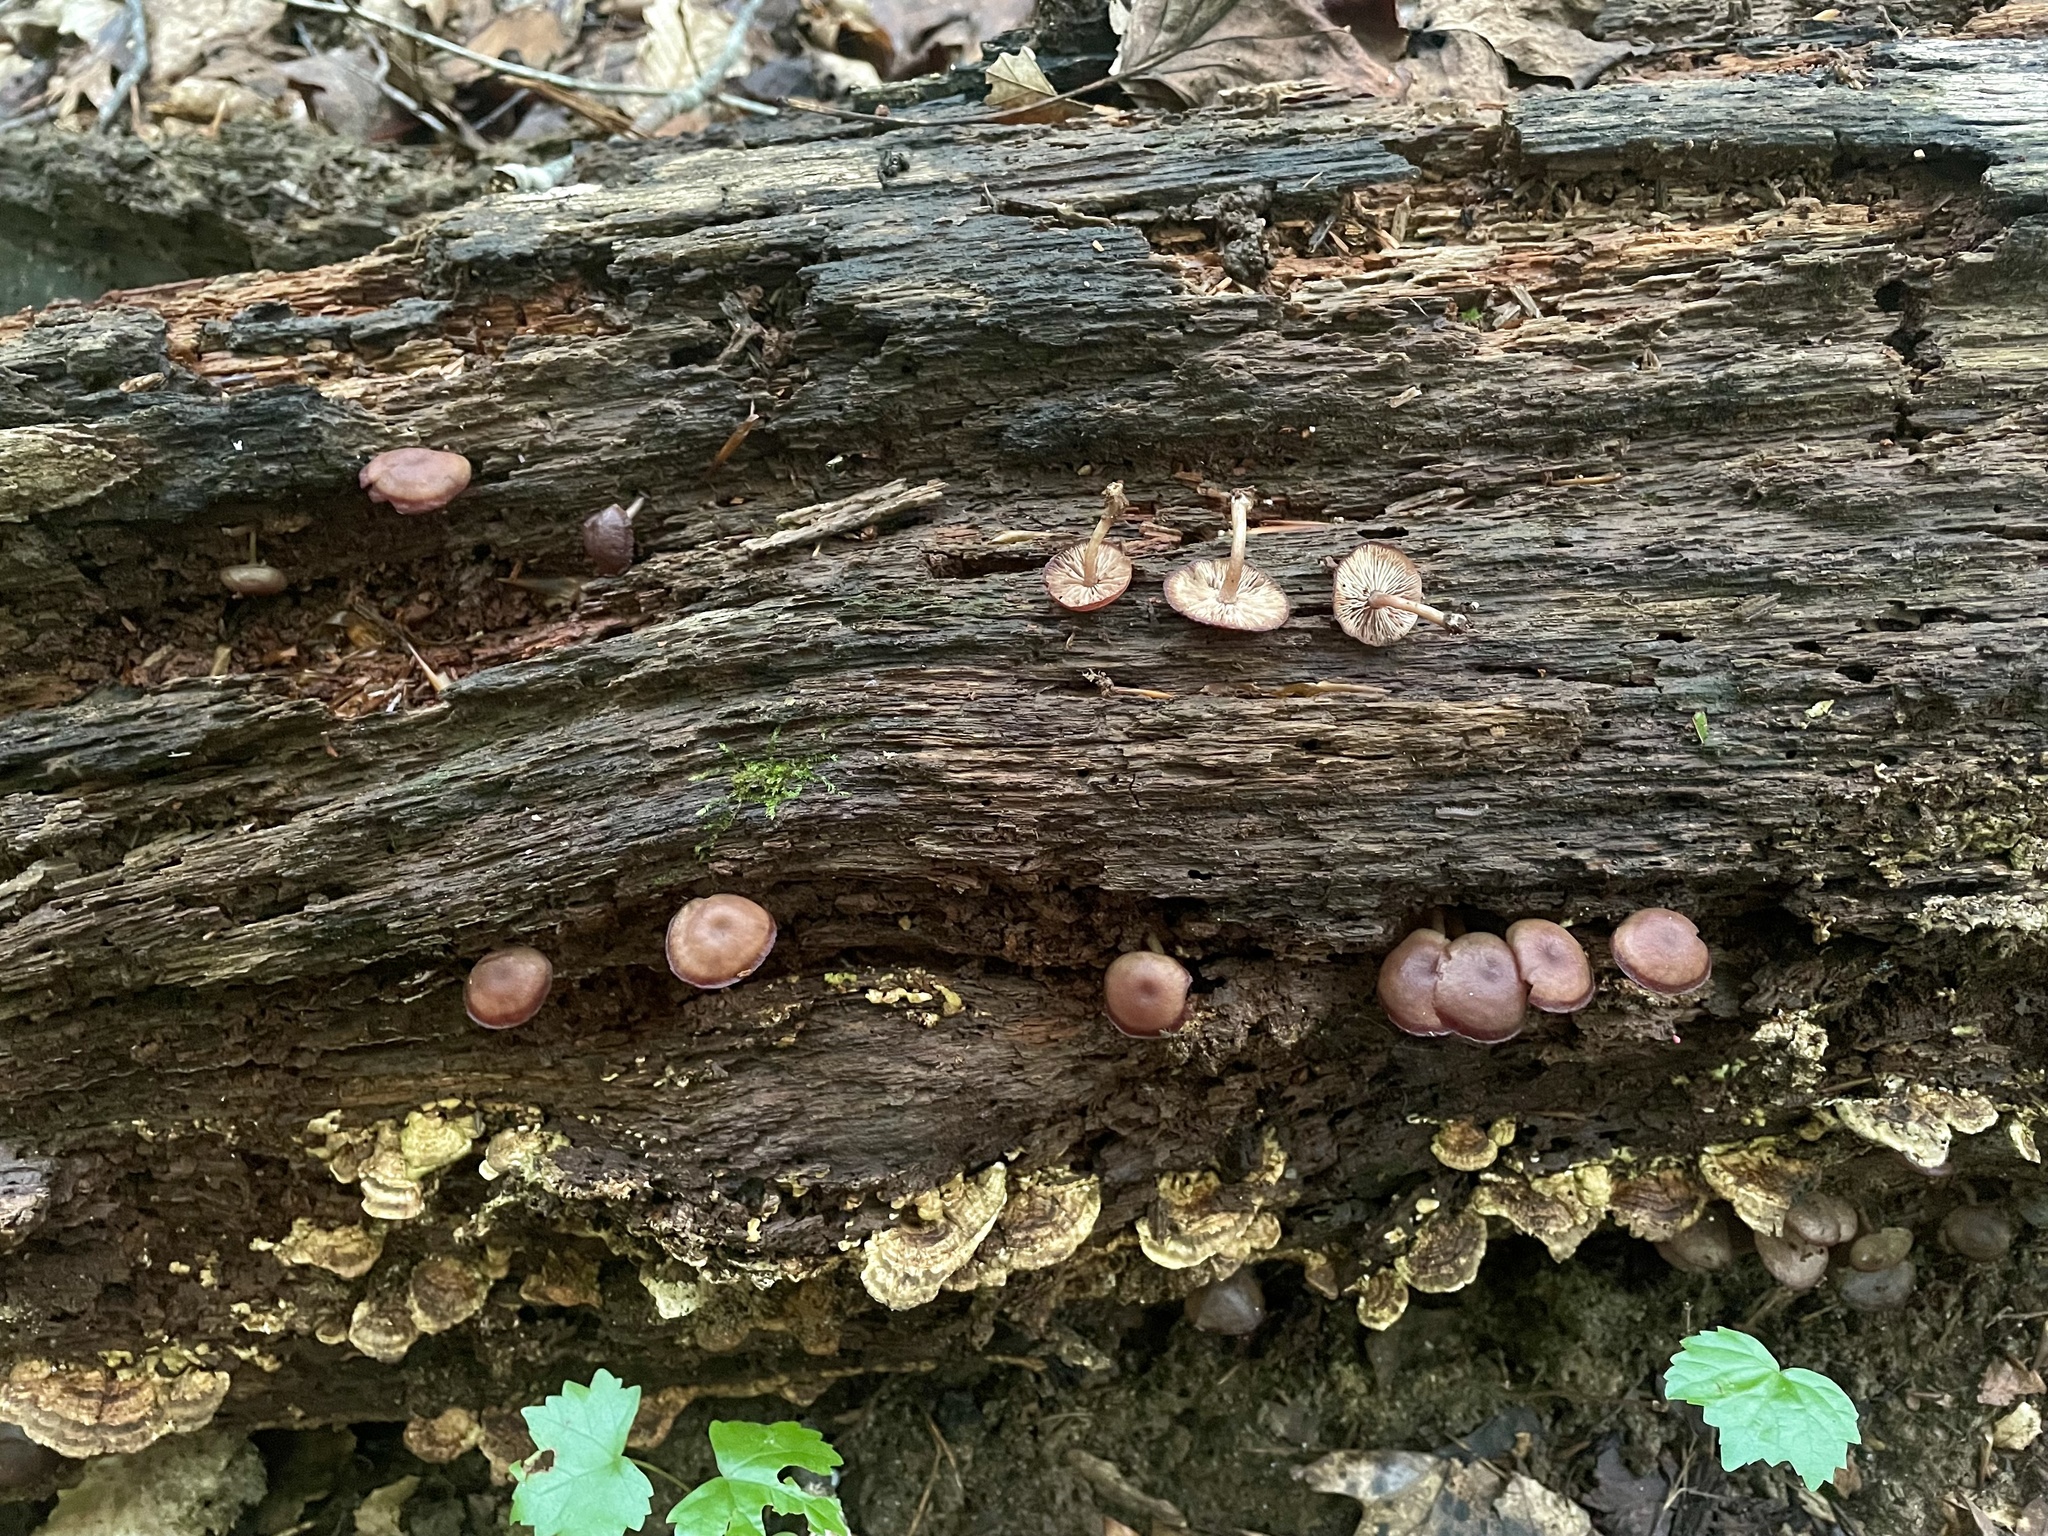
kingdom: Fungi
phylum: Basidiomycota
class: Agaricomycetes
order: Agaricales
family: Callistosporiaceae
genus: Callistosporium
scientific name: Callistosporium purpureomarginatum
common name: Purple-edged lute
